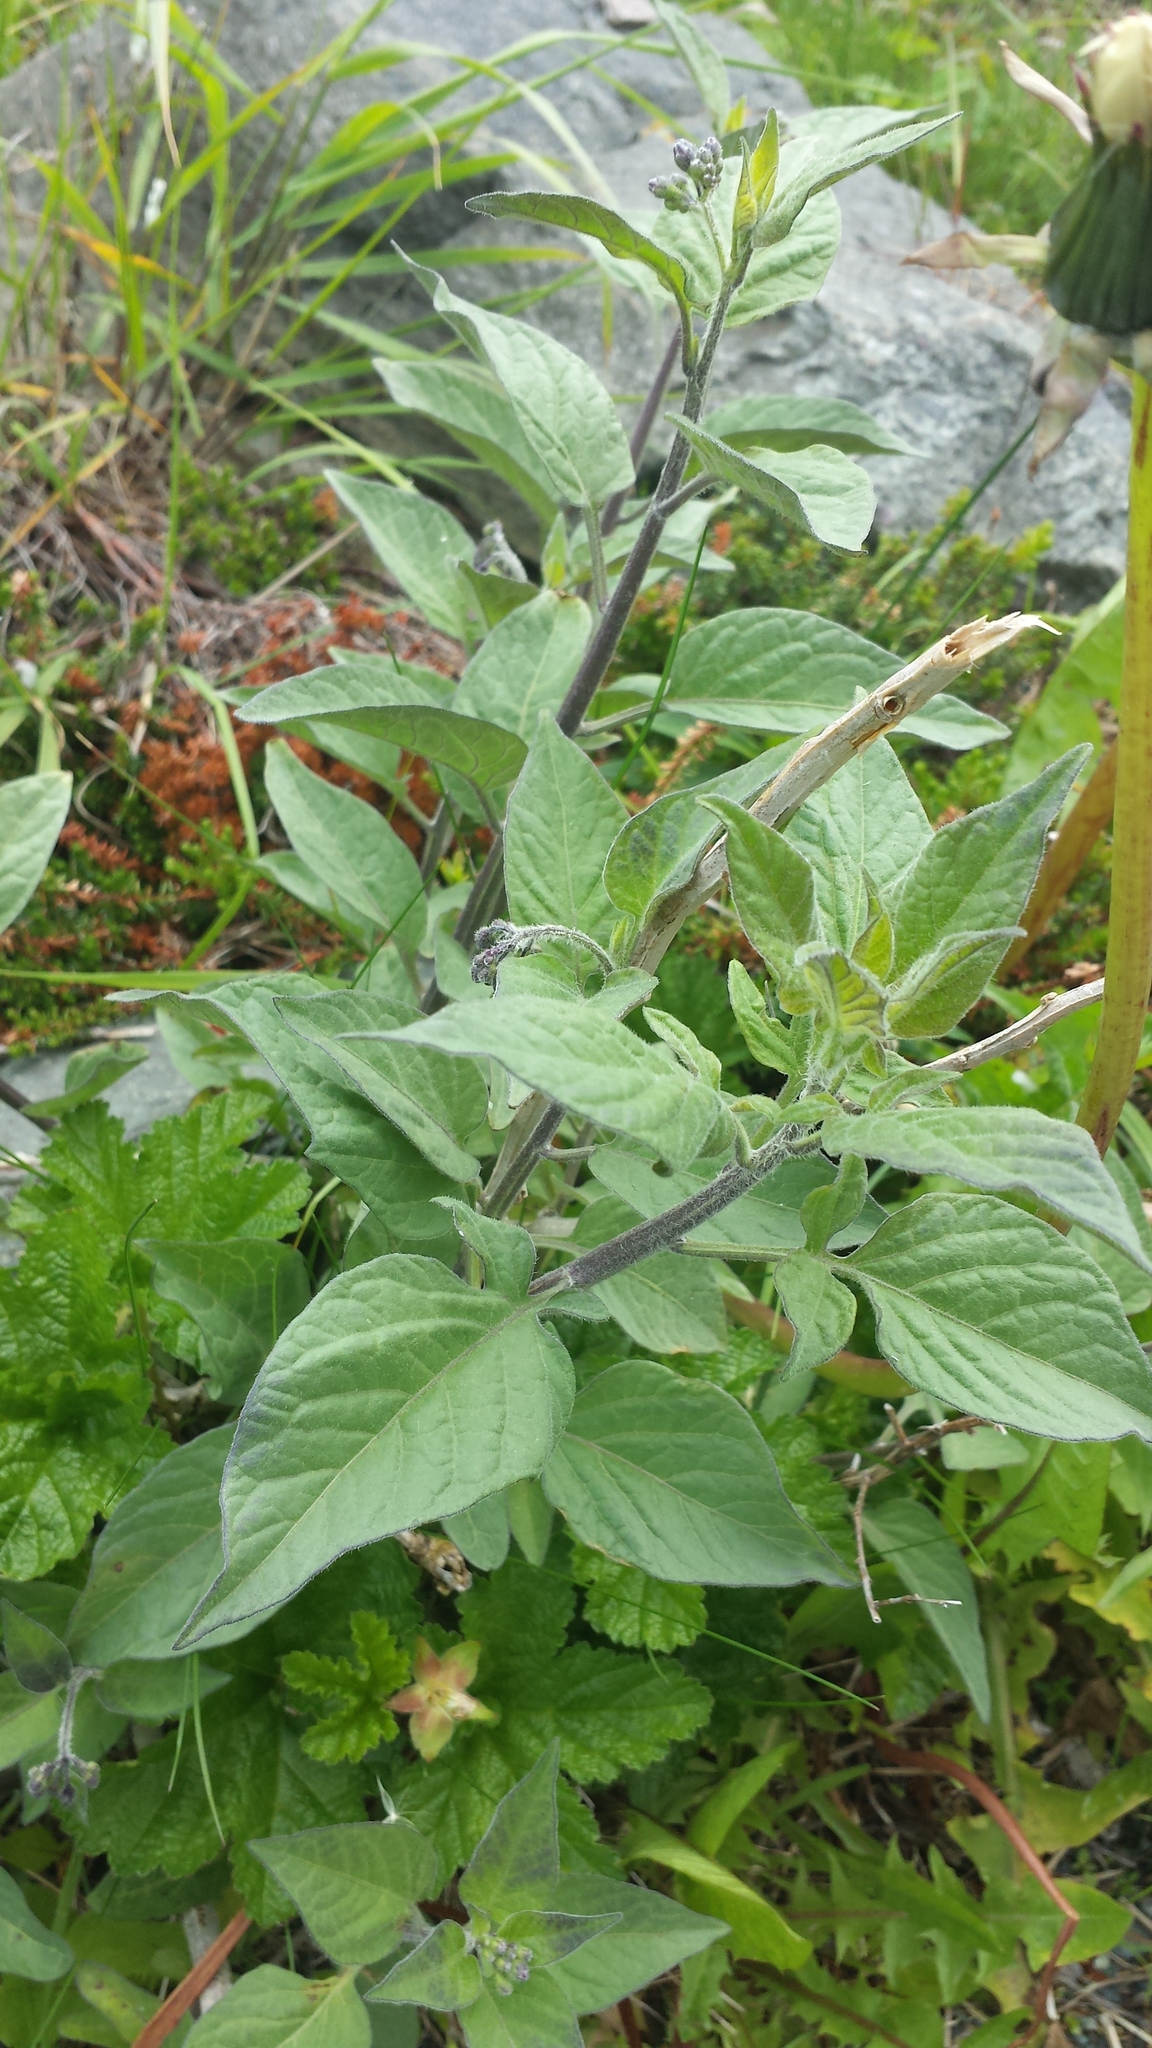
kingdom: Plantae
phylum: Tracheophyta
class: Magnoliopsida
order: Solanales
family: Solanaceae
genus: Solanum
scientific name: Solanum dulcamara
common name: Climbing nightshade
